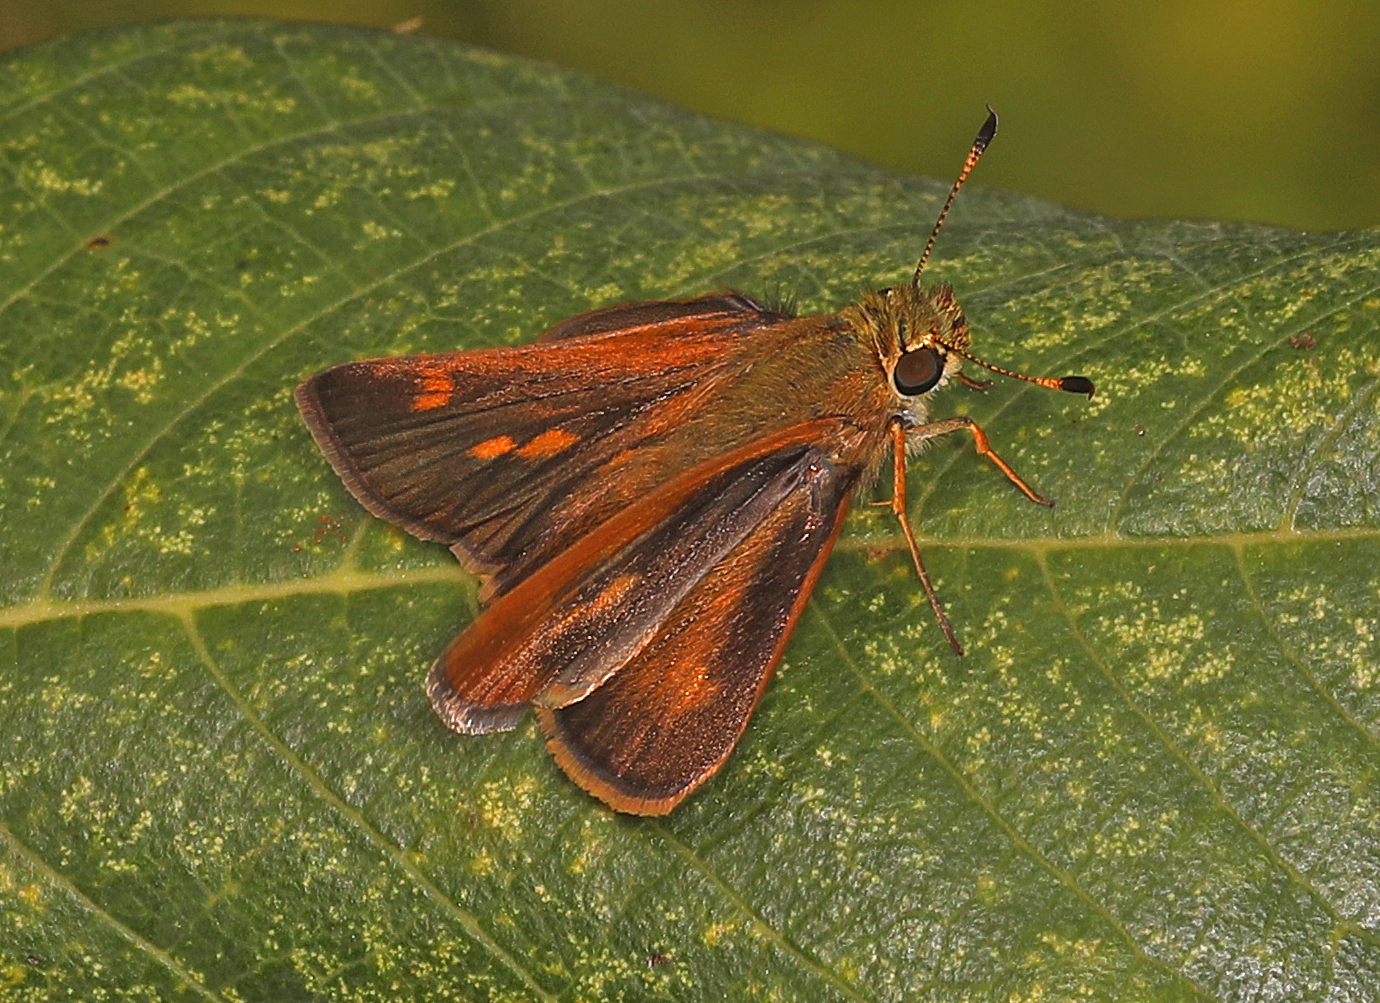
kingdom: Animalia
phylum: Arthropoda
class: Insecta
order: Lepidoptera
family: Hesperiidae
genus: Polites
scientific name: Polites otho
